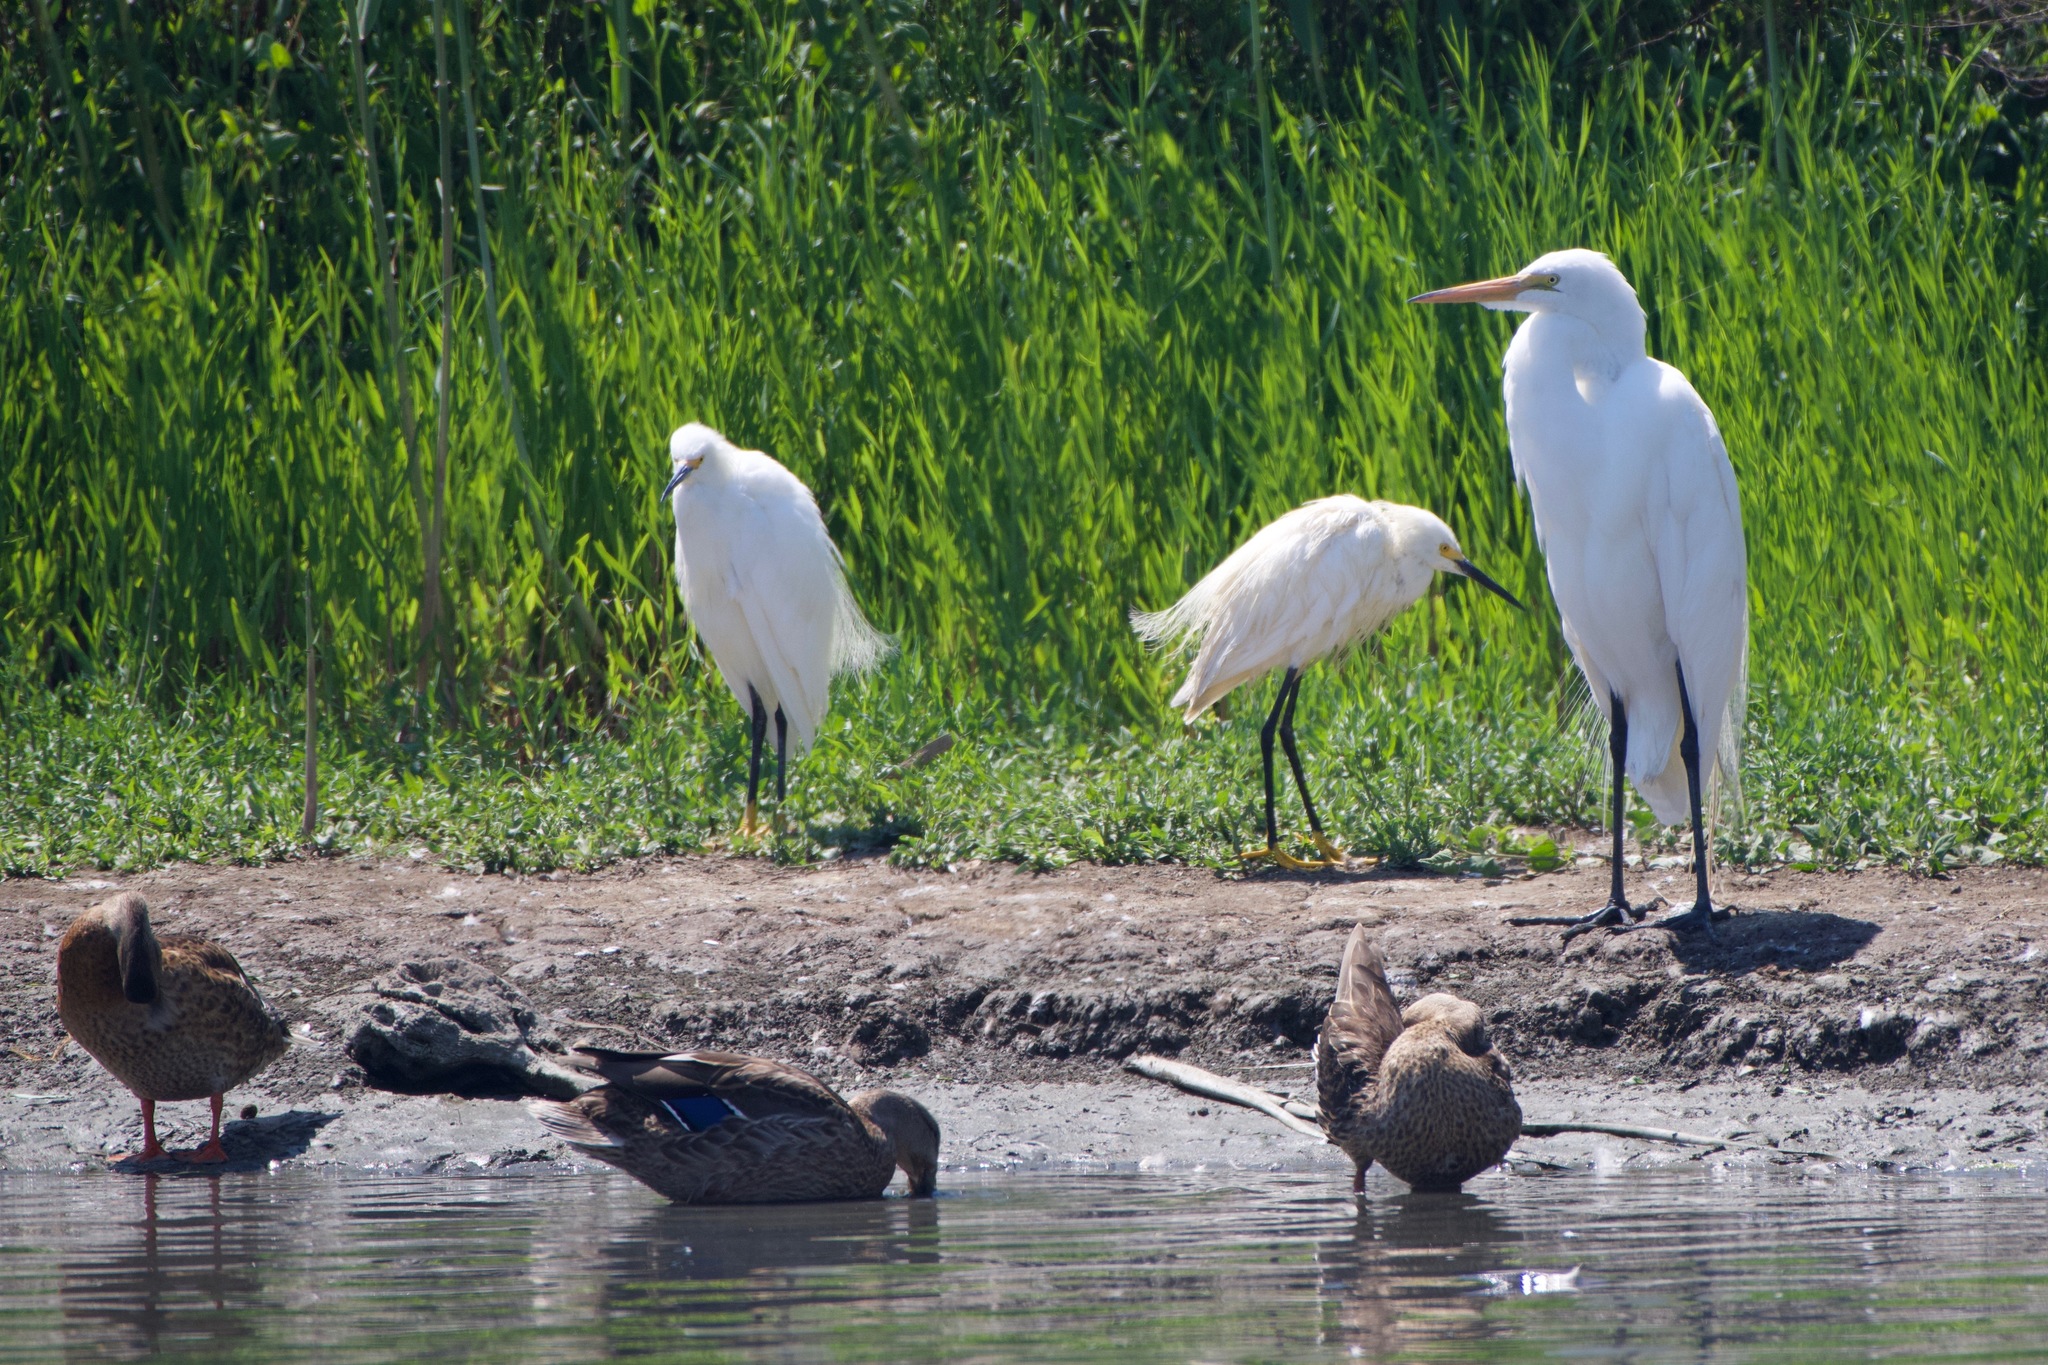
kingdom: Animalia
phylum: Chordata
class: Aves
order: Pelecaniformes
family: Ardeidae
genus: Ardea
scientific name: Ardea alba
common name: Great egret
